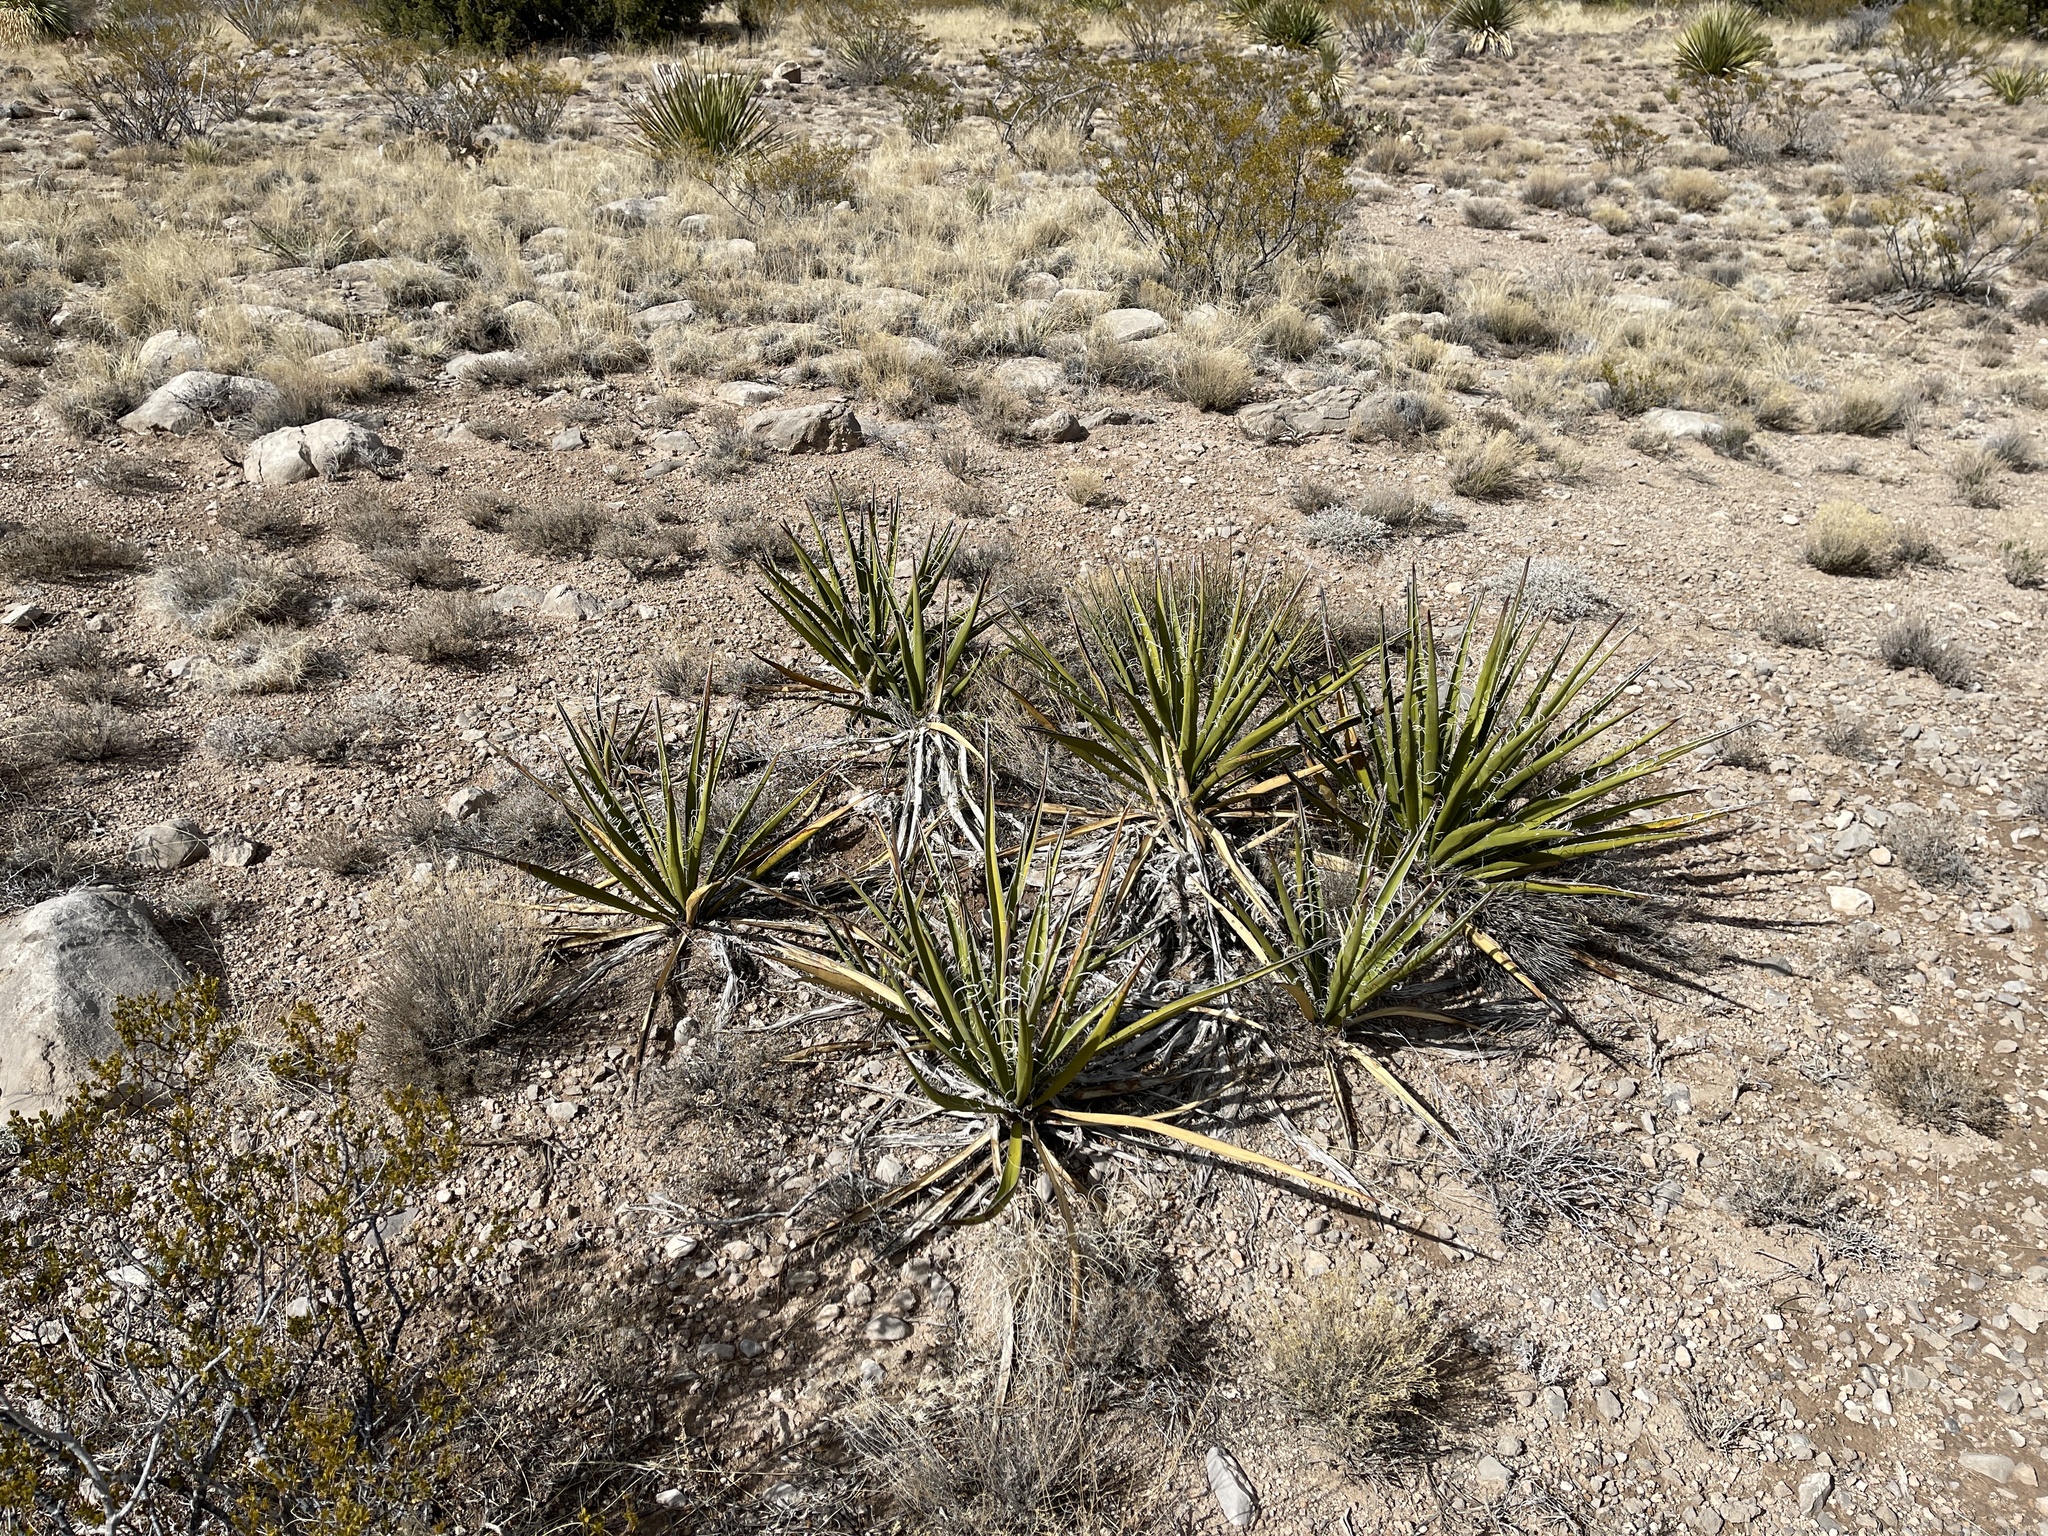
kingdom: Plantae
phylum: Tracheophyta
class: Liliopsida
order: Asparagales
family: Asparagaceae
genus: Yucca
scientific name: Yucca baccata
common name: Banana yucca
